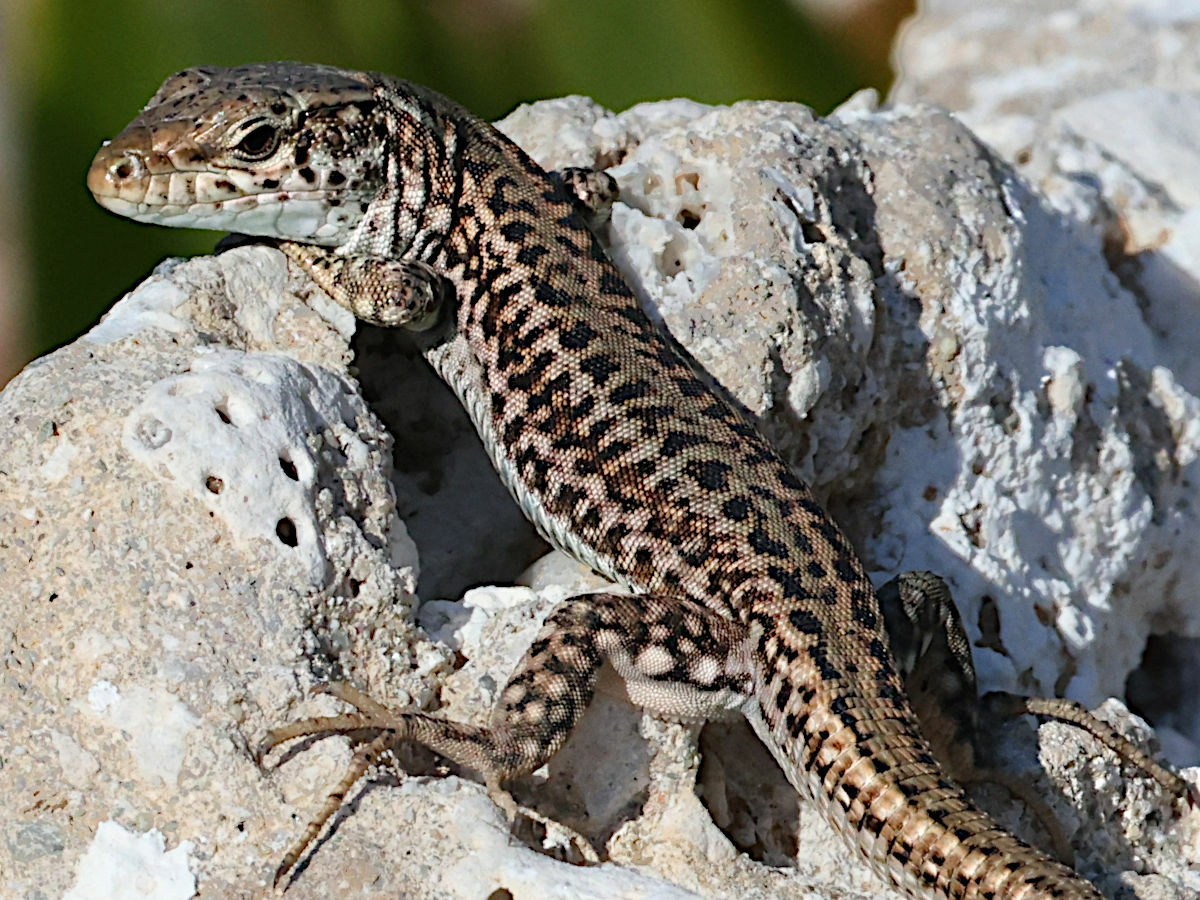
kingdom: Animalia
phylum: Chordata
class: Squamata
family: Lacertidae
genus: Podarcis
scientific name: Podarcis erhardii
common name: Erhard's wall lizard
